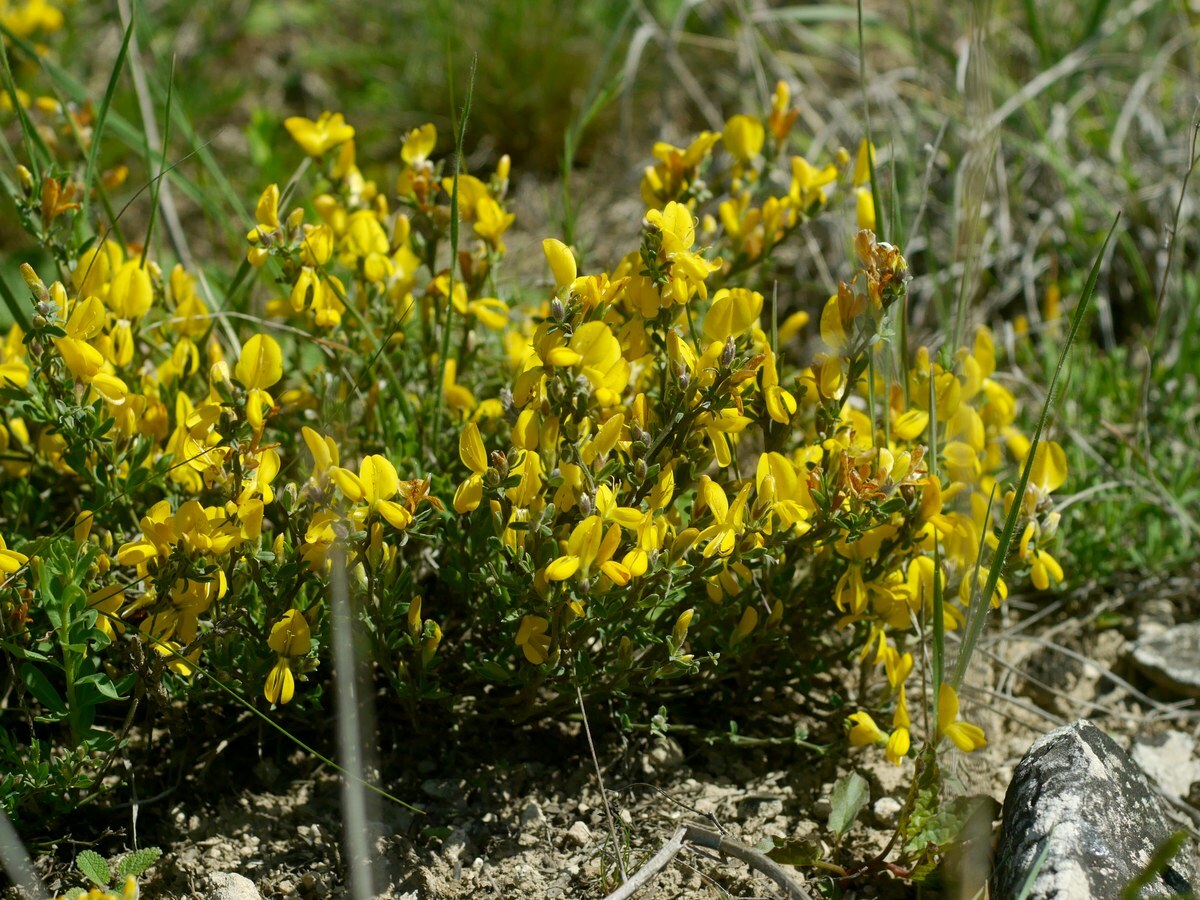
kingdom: Plantae
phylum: Tracheophyta
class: Magnoliopsida
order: Fabales
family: Fabaceae
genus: Genista
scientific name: Genista albida
